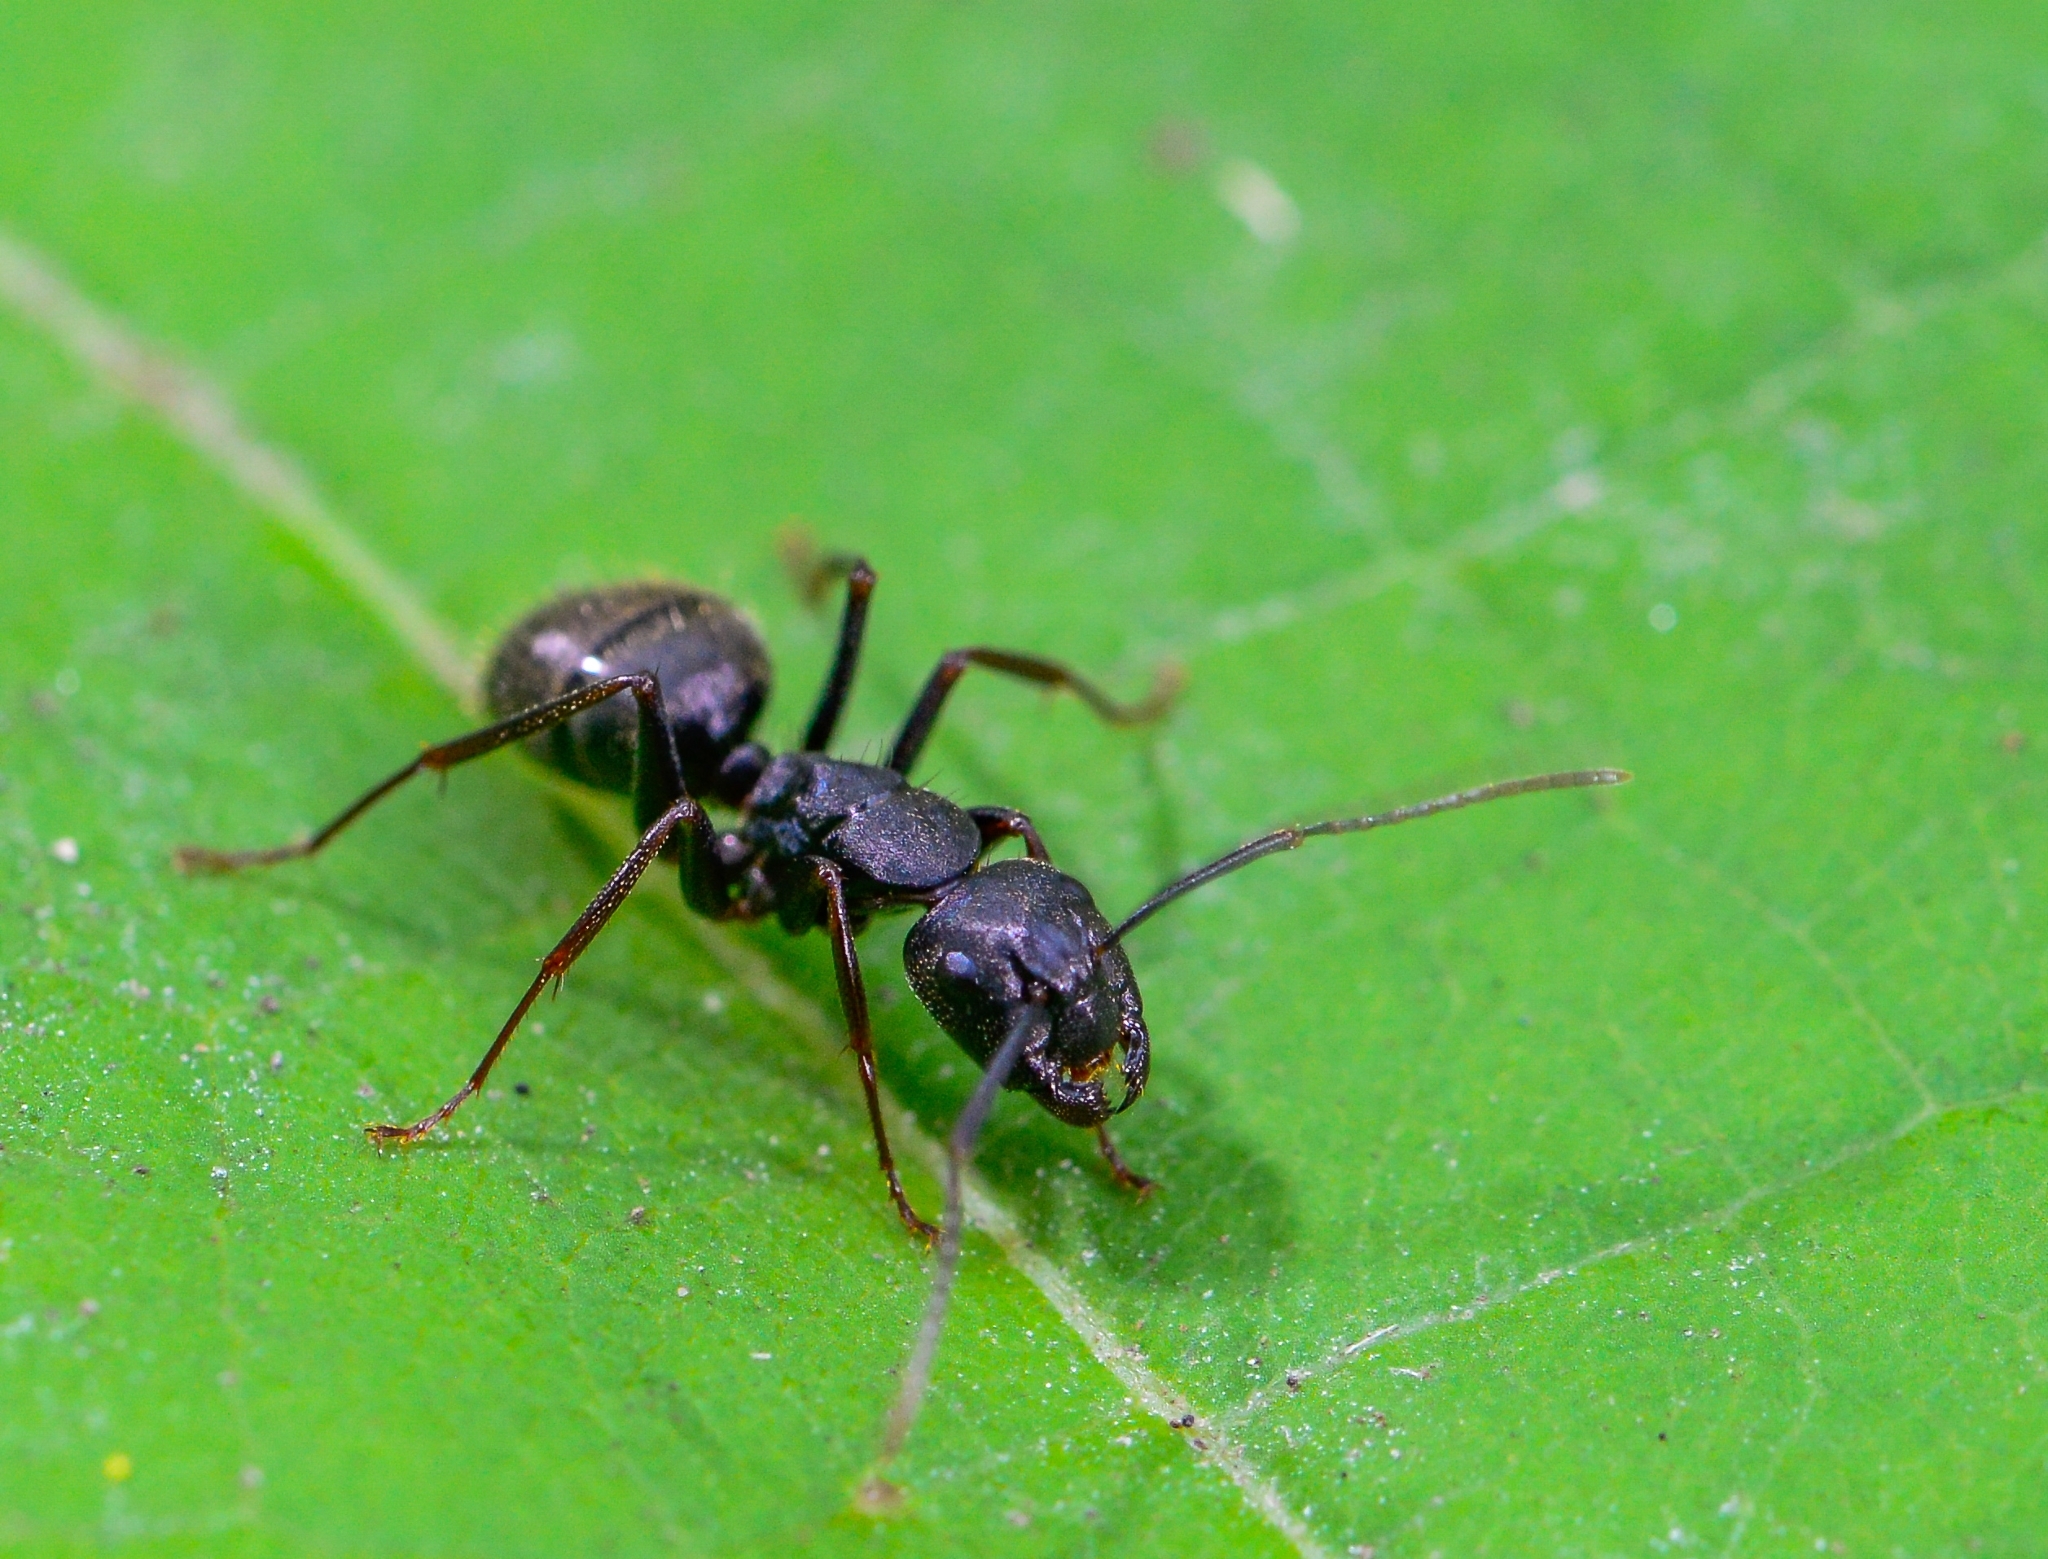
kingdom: Animalia
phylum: Arthropoda
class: Insecta
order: Hymenoptera
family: Formicidae
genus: Camponotus
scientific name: Camponotus pennsylvanicus
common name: Black carpenter ant
